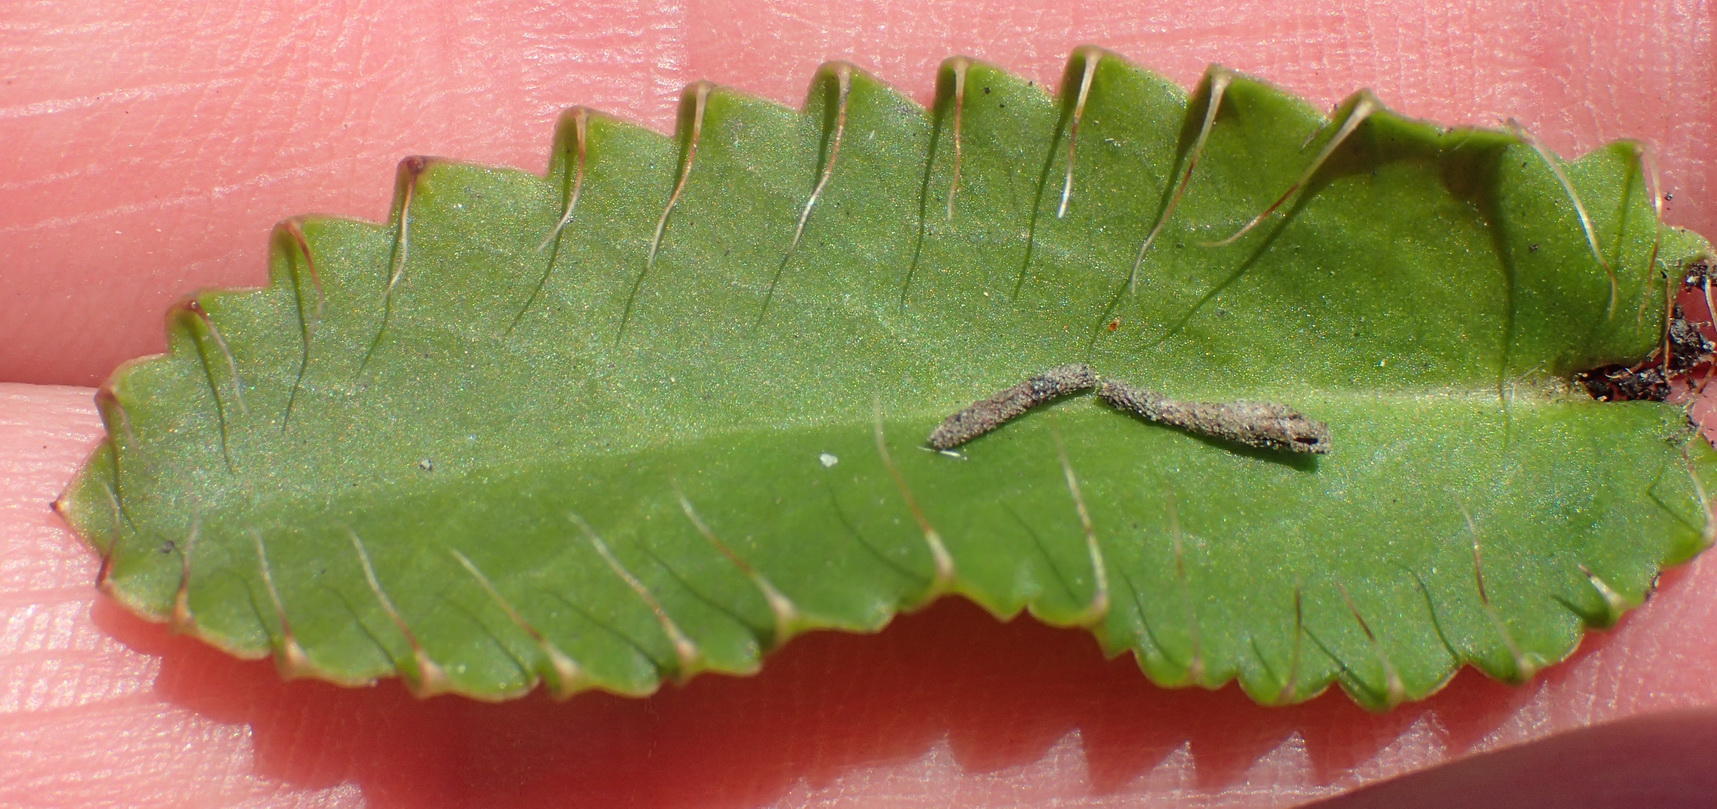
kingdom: Plantae
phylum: Tracheophyta
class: Magnoliopsida
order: Apiales
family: Apiaceae
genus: Alepidea
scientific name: Alepidea capensis
